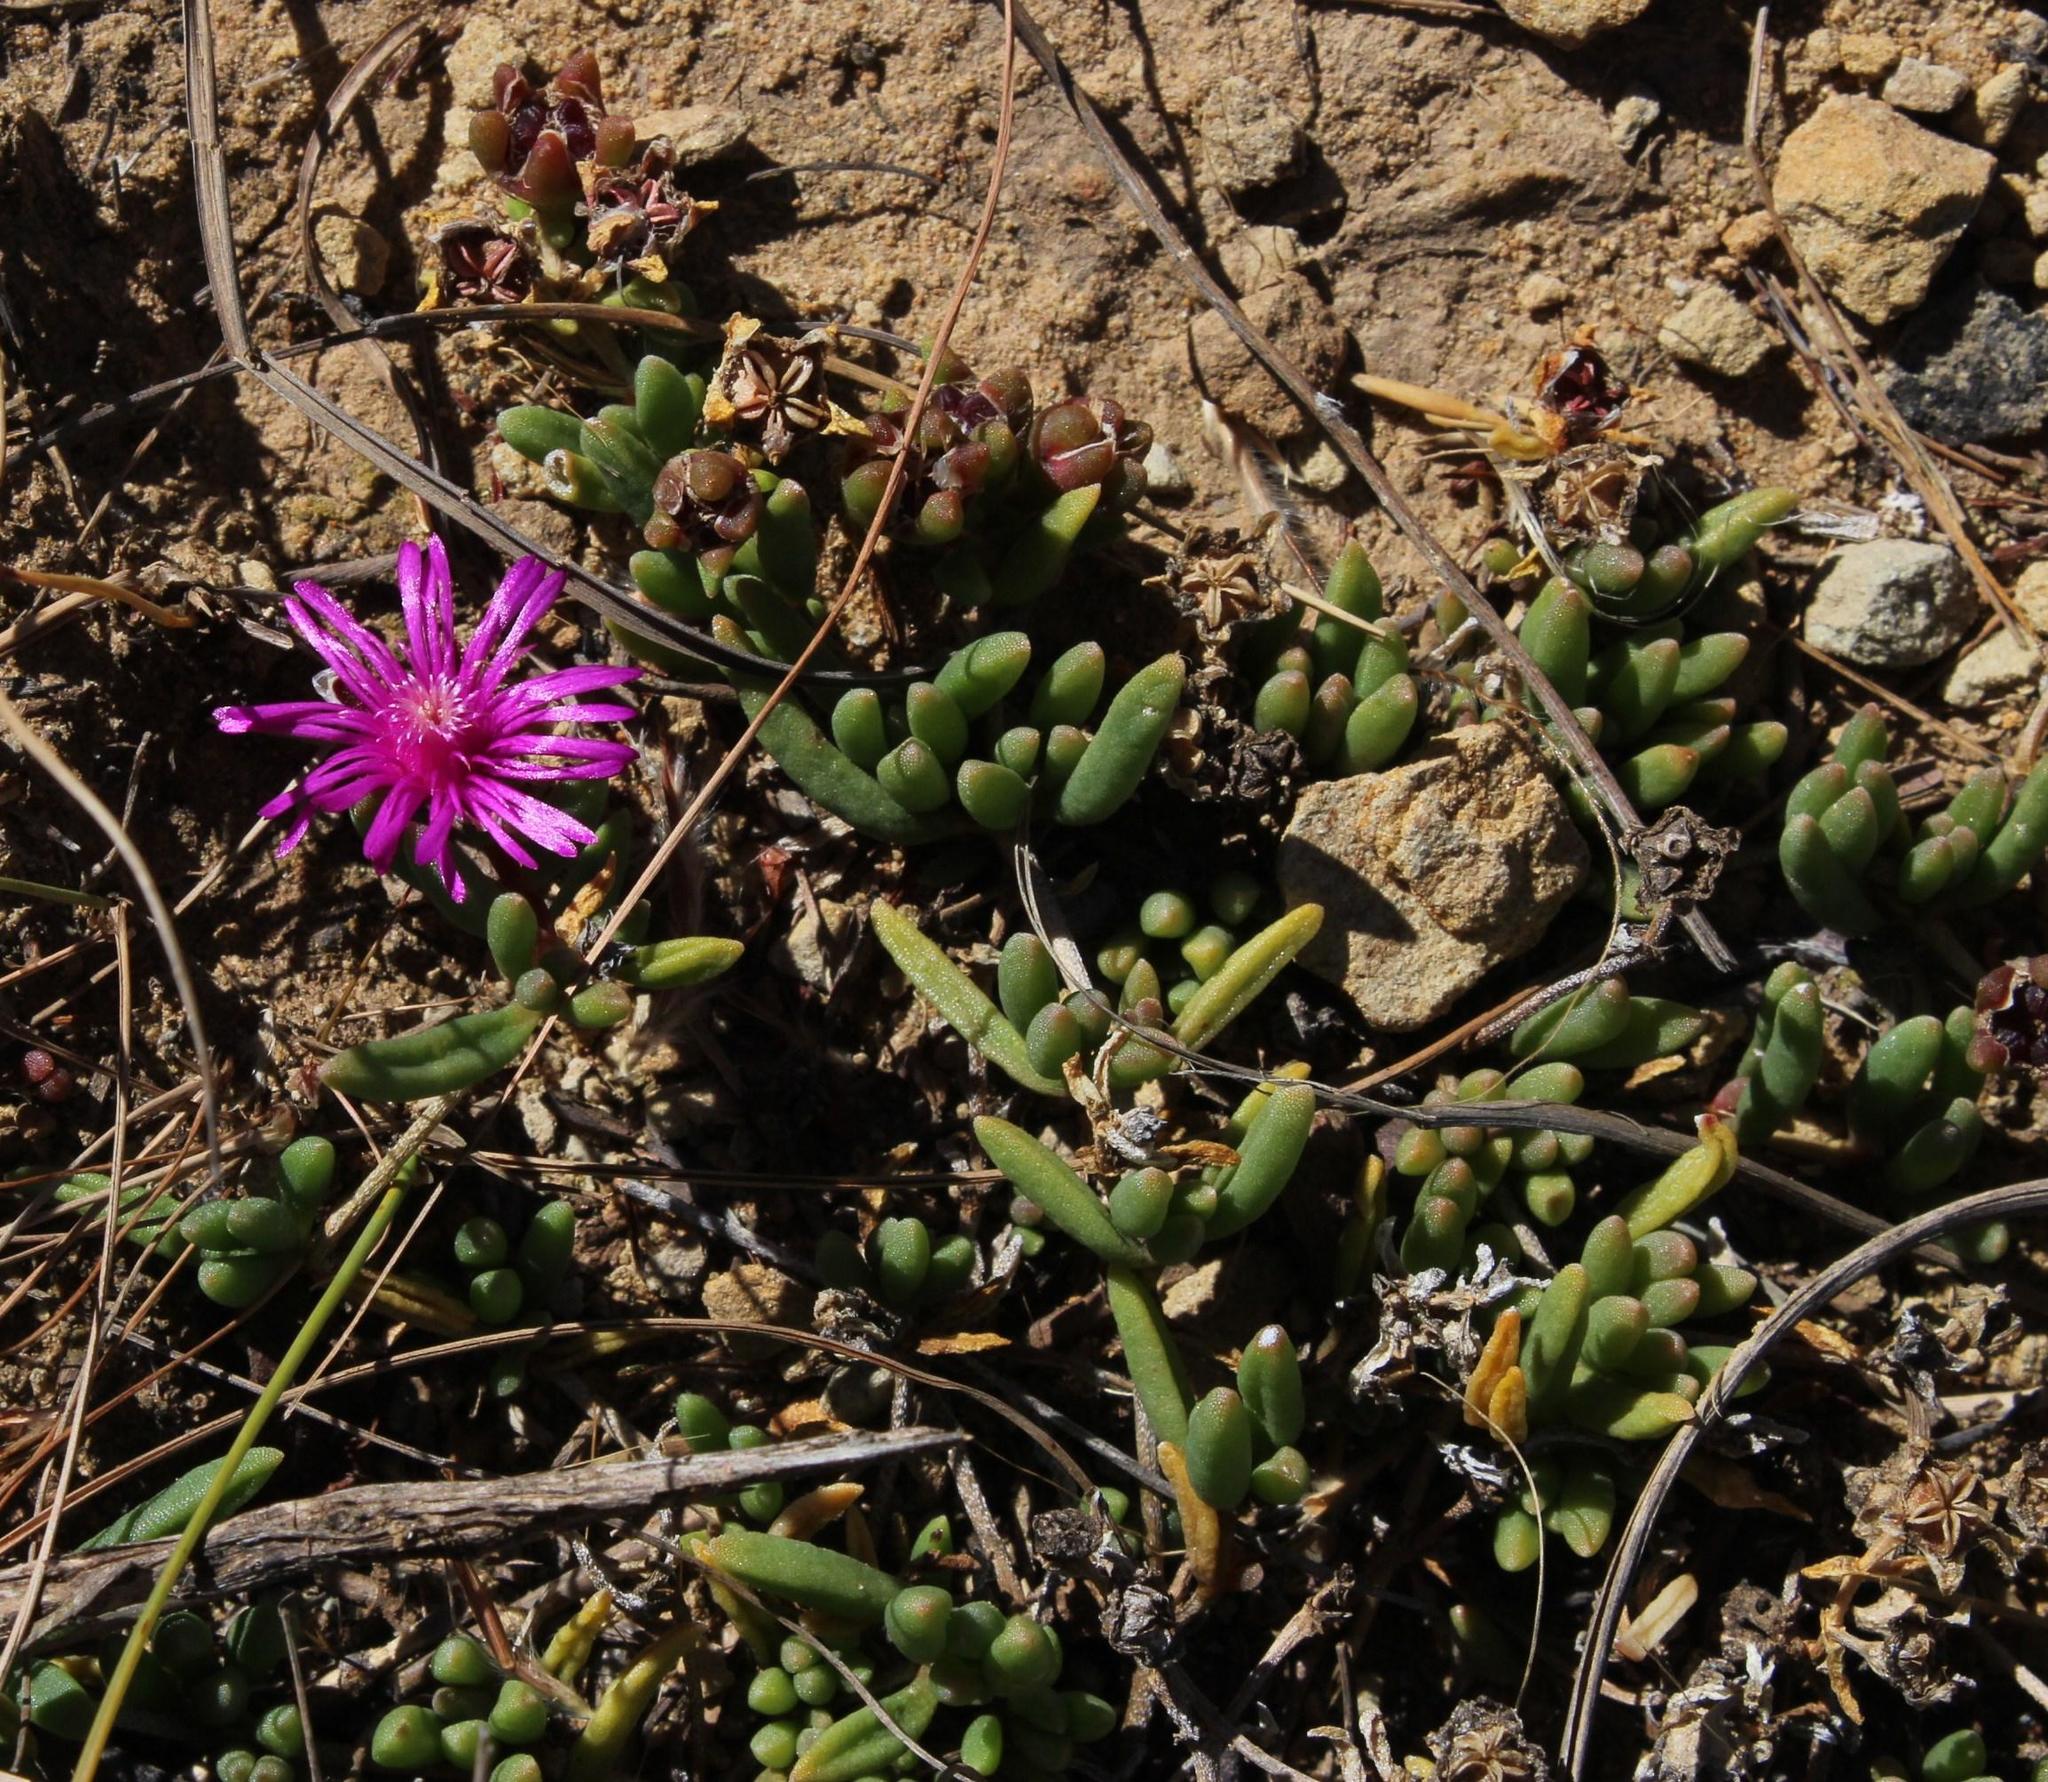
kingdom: Plantae
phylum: Tracheophyta
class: Magnoliopsida
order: Caryophyllales
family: Aizoaceae
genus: Delosperma
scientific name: Delosperma obtusum
